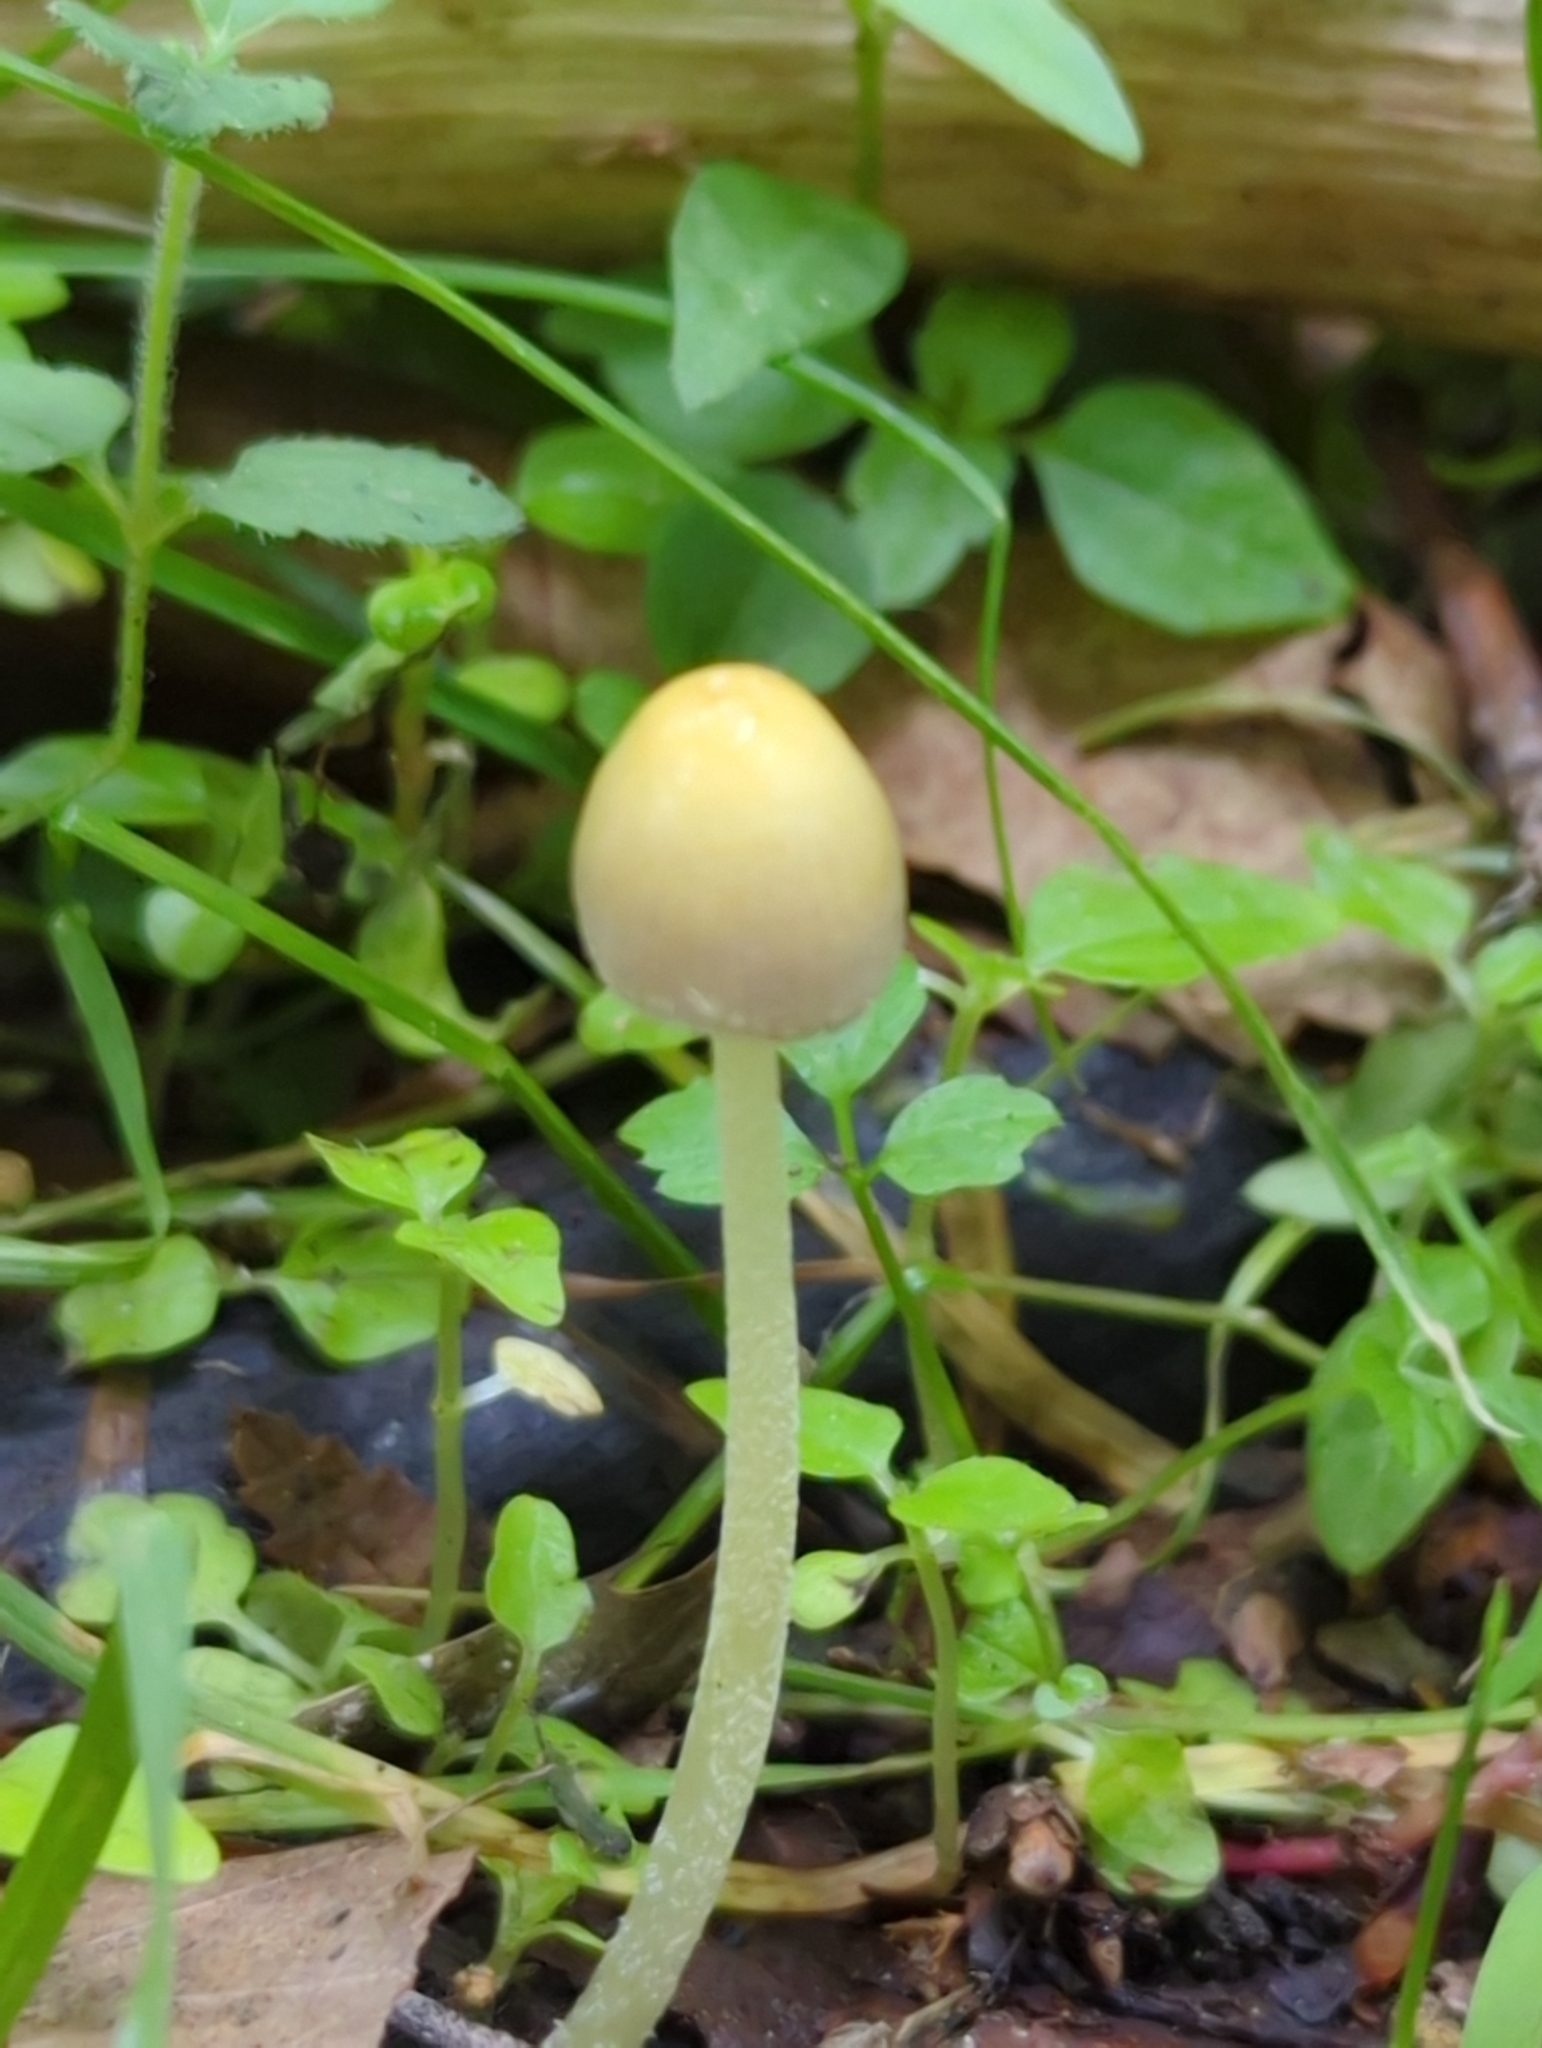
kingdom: Fungi
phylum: Basidiomycota
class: Agaricomycetes
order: Agaricales
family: Bolbitiaceae
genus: Bolbitius
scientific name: Bolbitius titubans
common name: Yellow fieldcap
